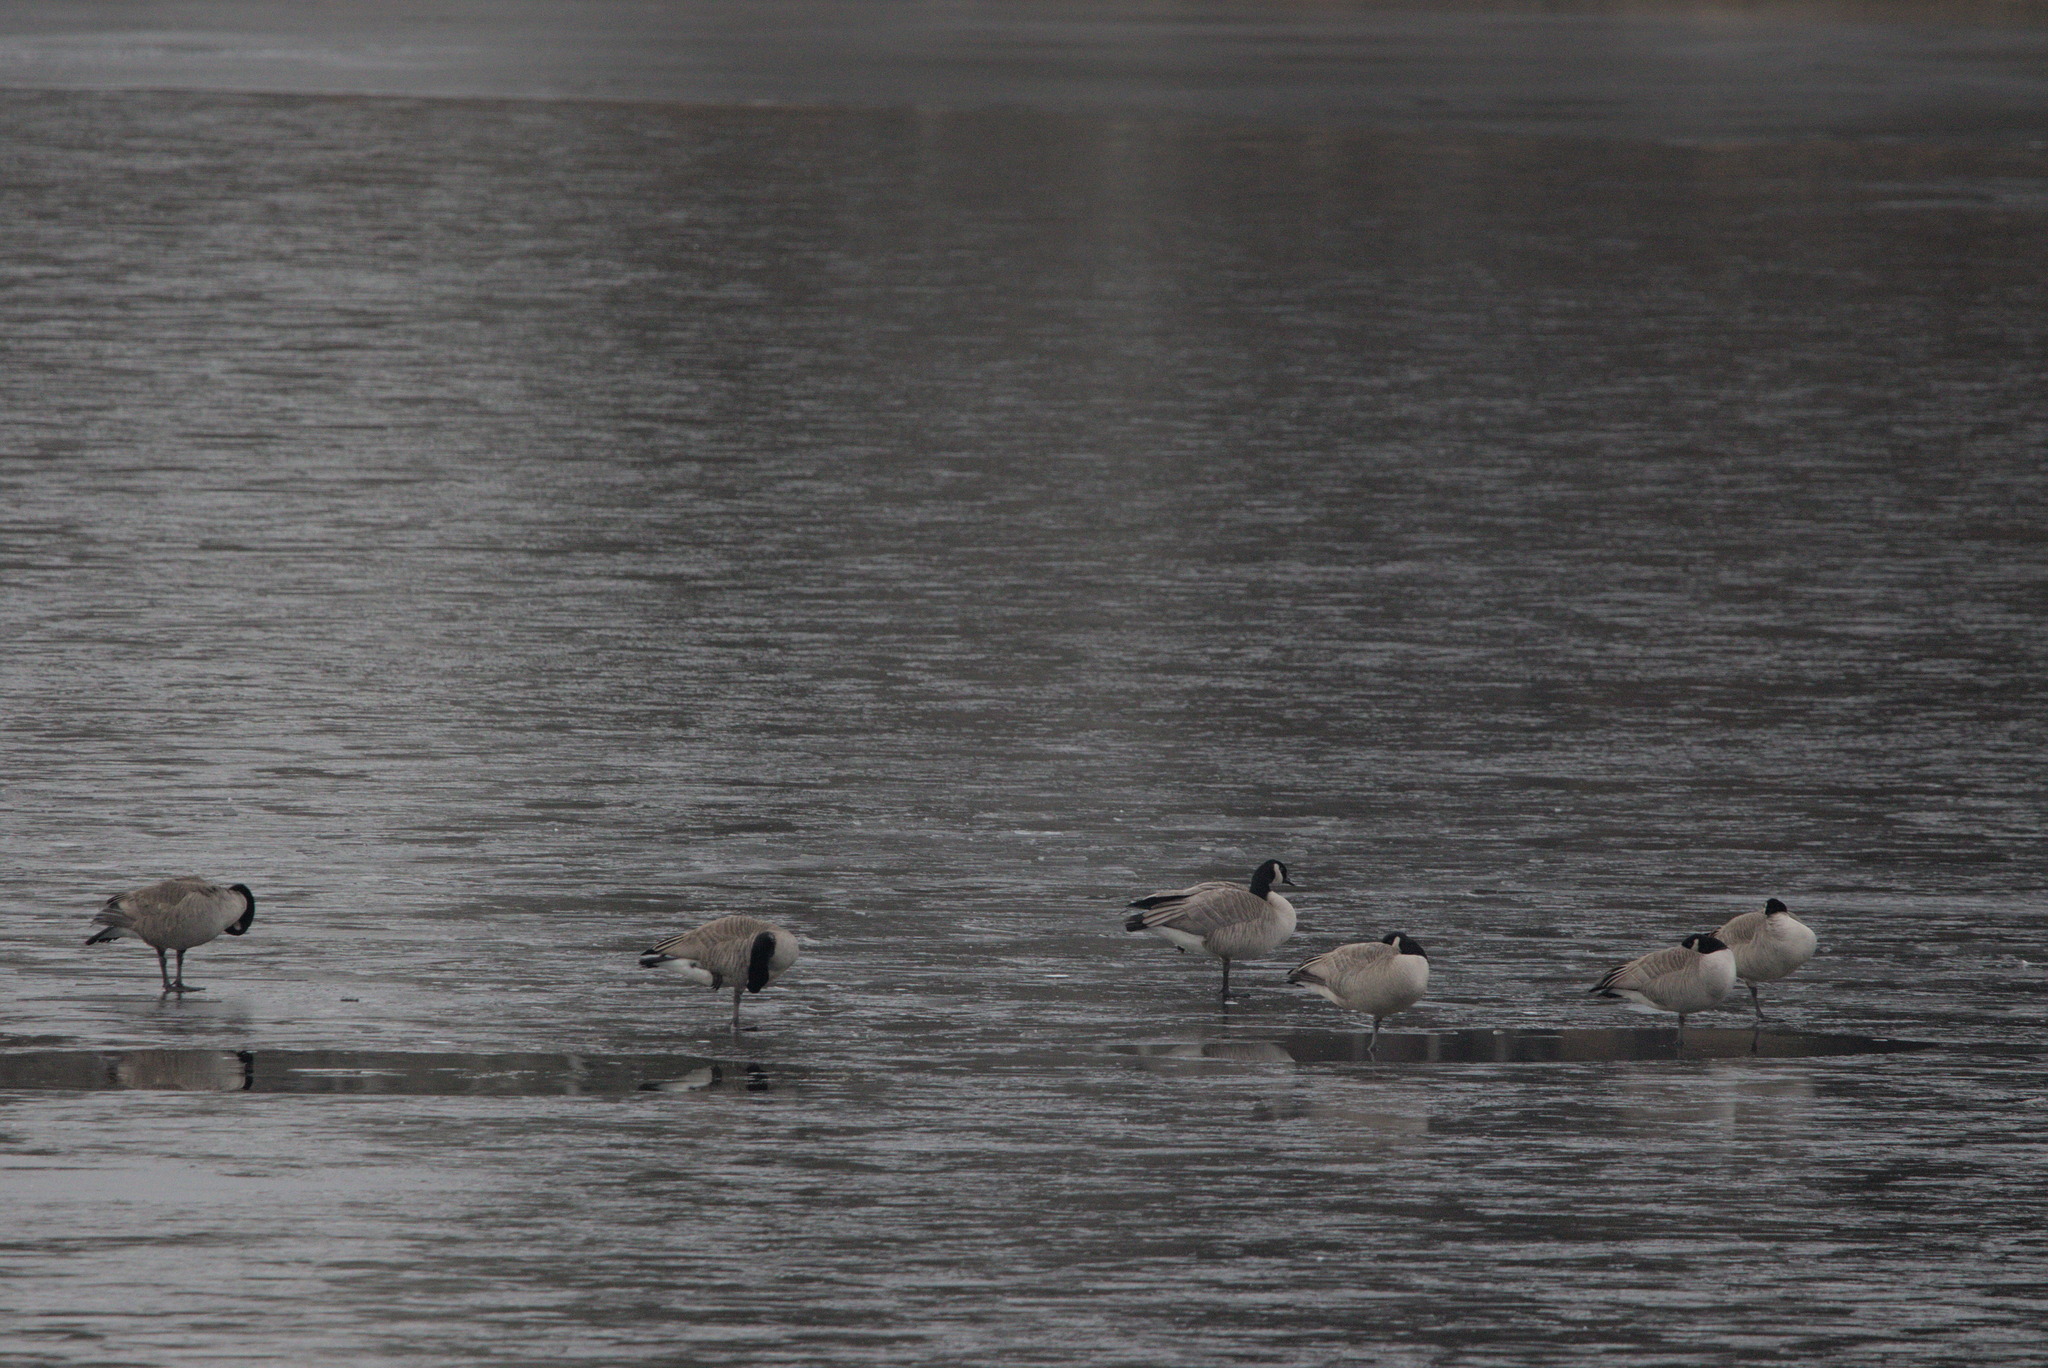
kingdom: Animalia
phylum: Chordata
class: Aves
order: Anseriformes
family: Anatidae
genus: Branta
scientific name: Branta canadensis
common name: Canada goose
